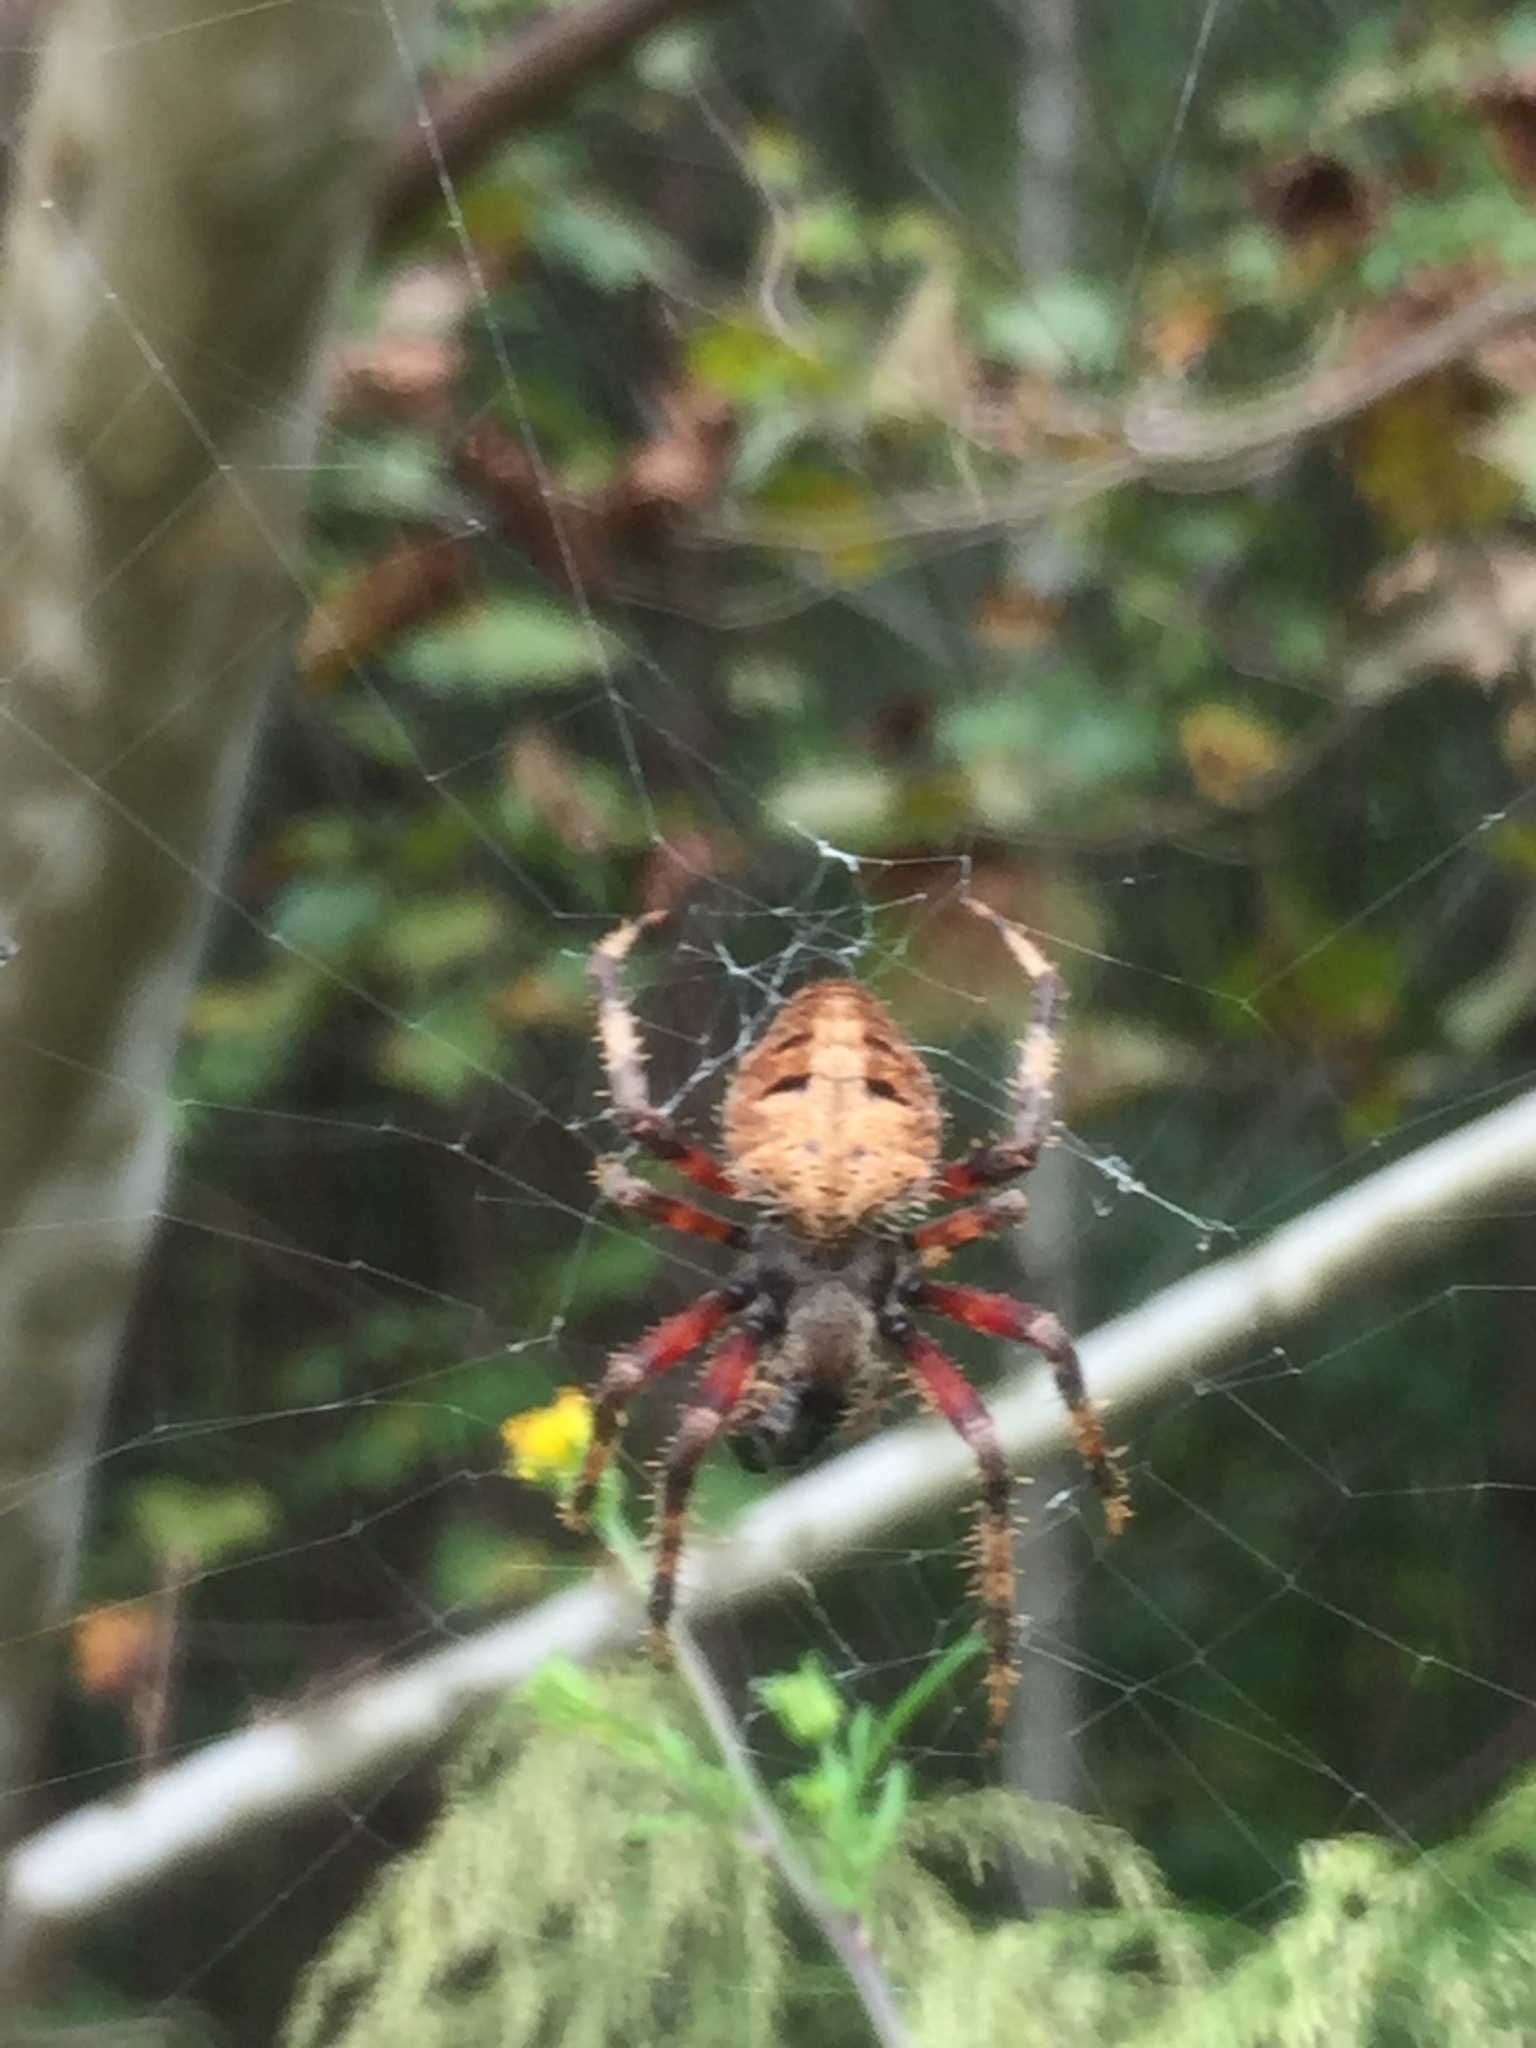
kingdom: Animalia
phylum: Arthropoda
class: Arachnida
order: Araneae
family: Araneidae
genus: Neoscona
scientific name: Neoscona domiciliorum
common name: Red-femured spotted orbweaver
